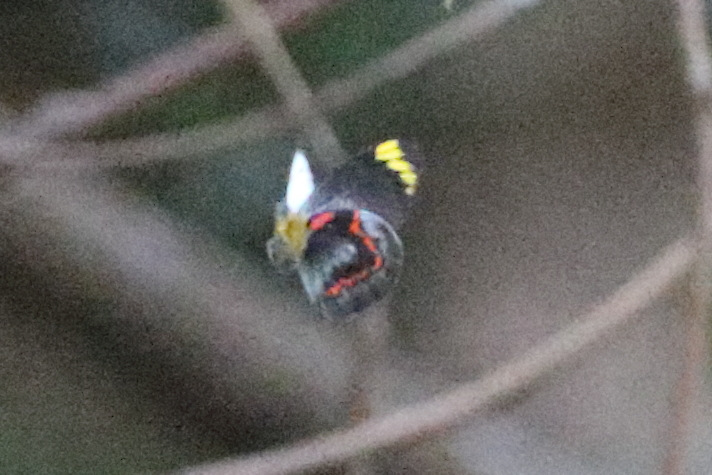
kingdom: Animalia
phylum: Arthropoda
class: Insecta
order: Lepidoptera
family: Pieridae
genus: Delias
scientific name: Delias nigrina
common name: Black jezebel
